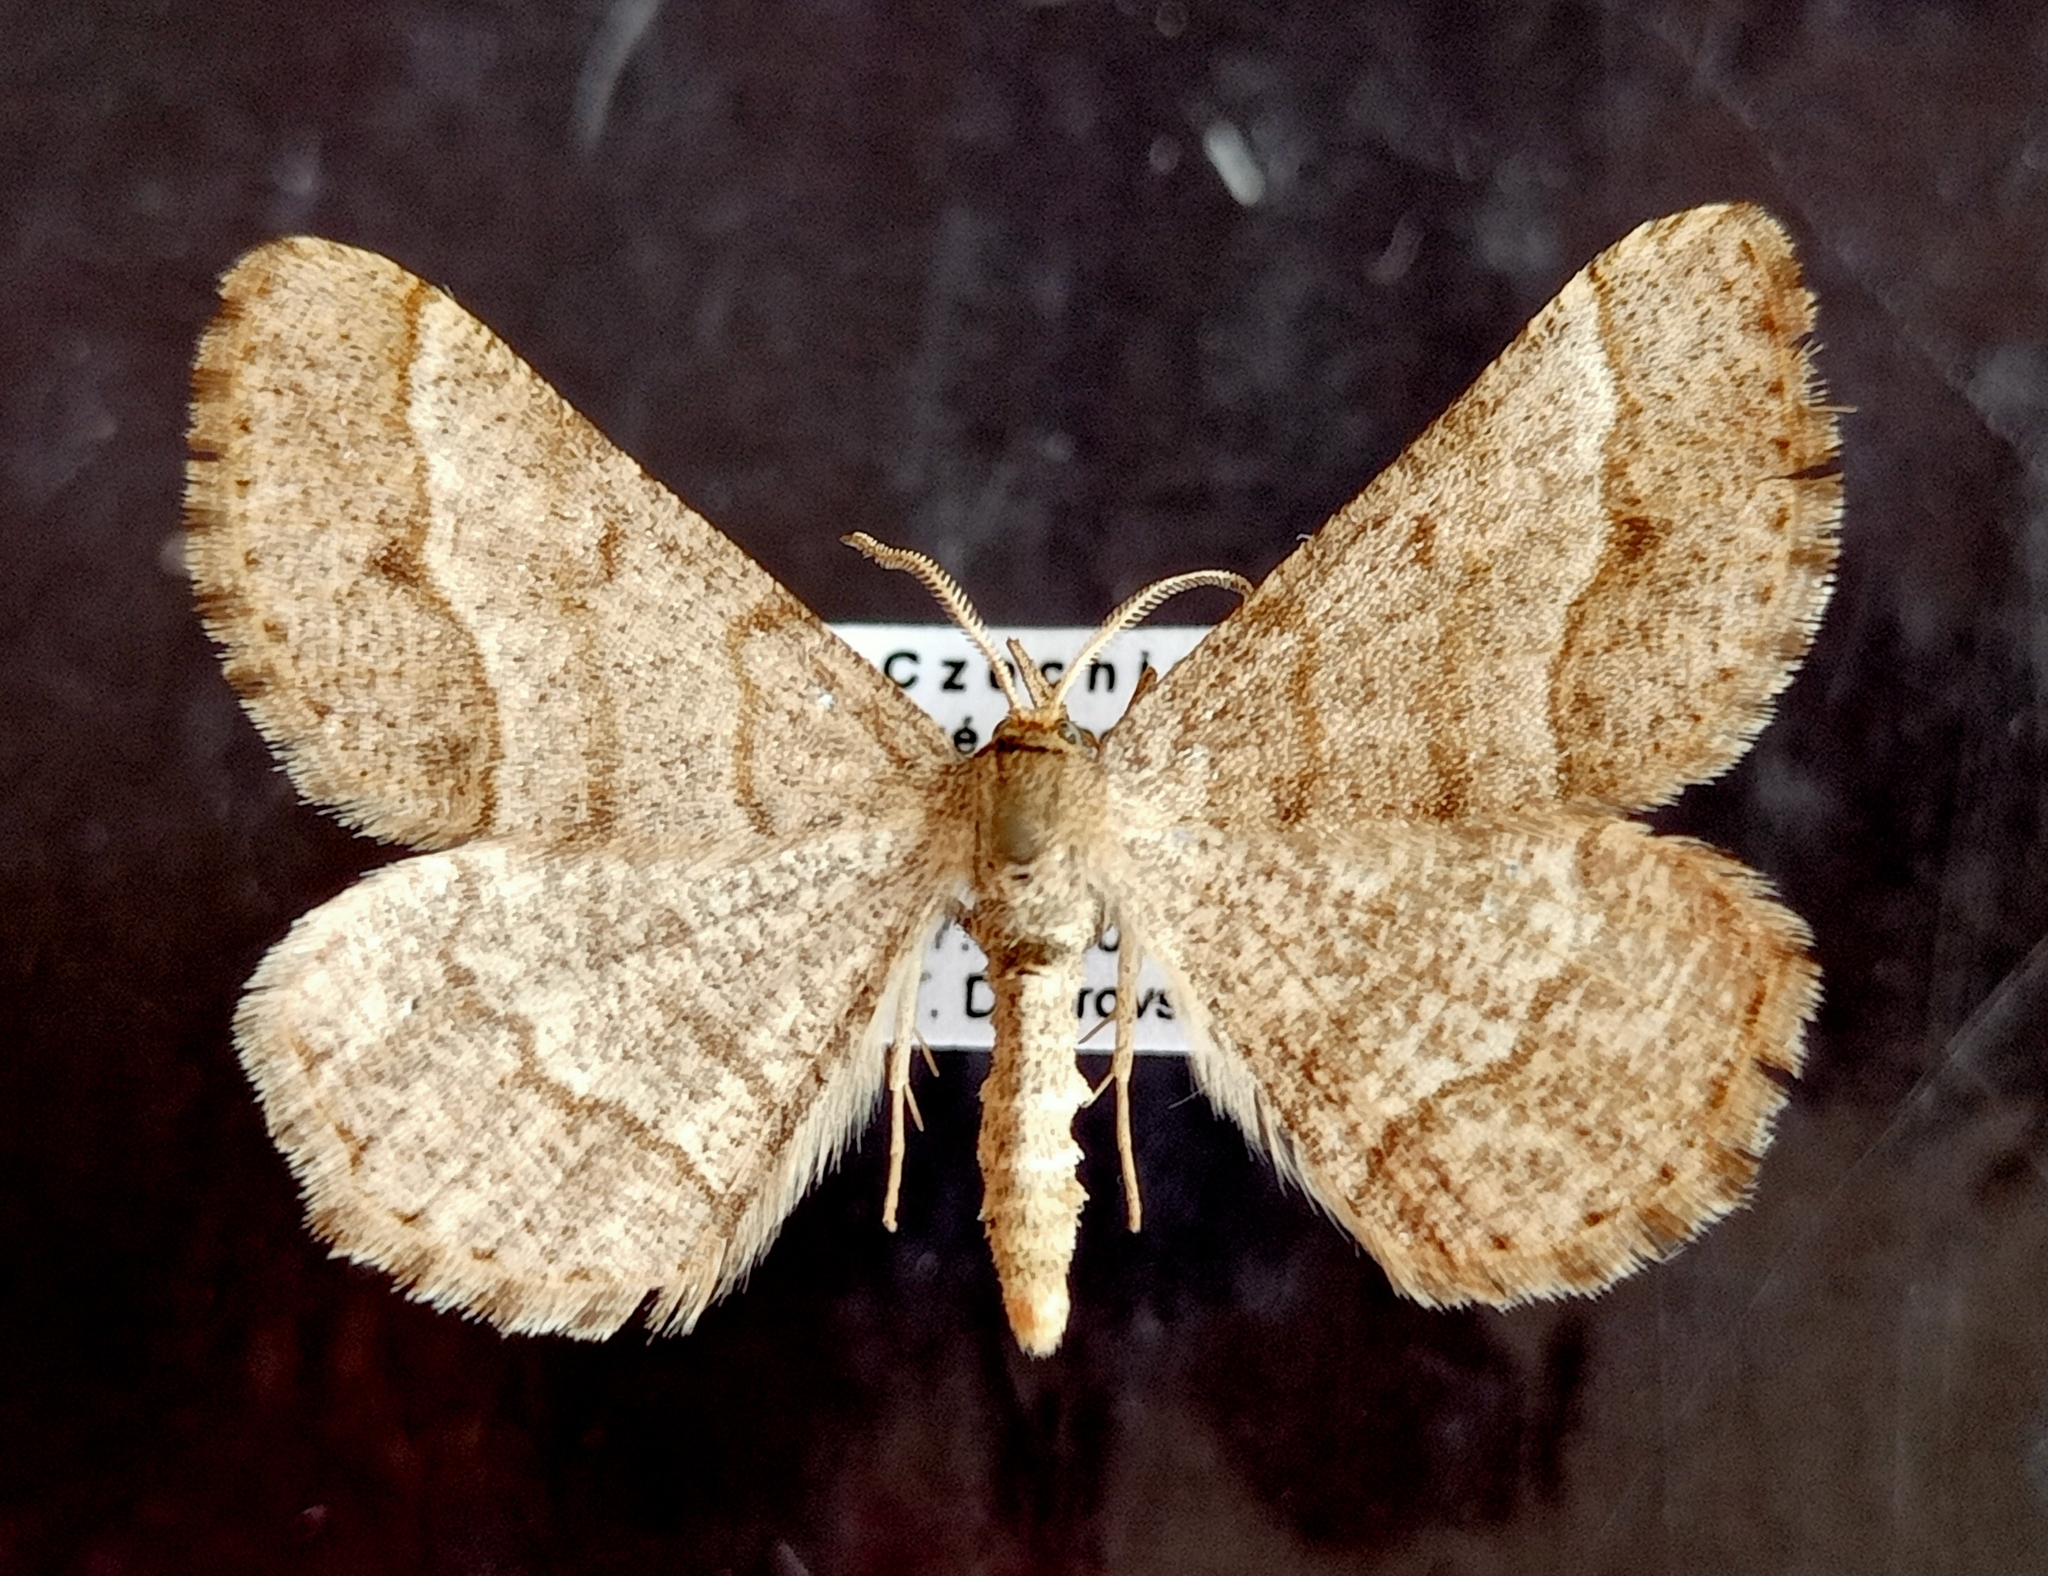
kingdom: Animalia
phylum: Arthropoda
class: Insecta
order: Lepidoptera
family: Geometridae
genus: Tephrina
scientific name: Tephrina murinaria
